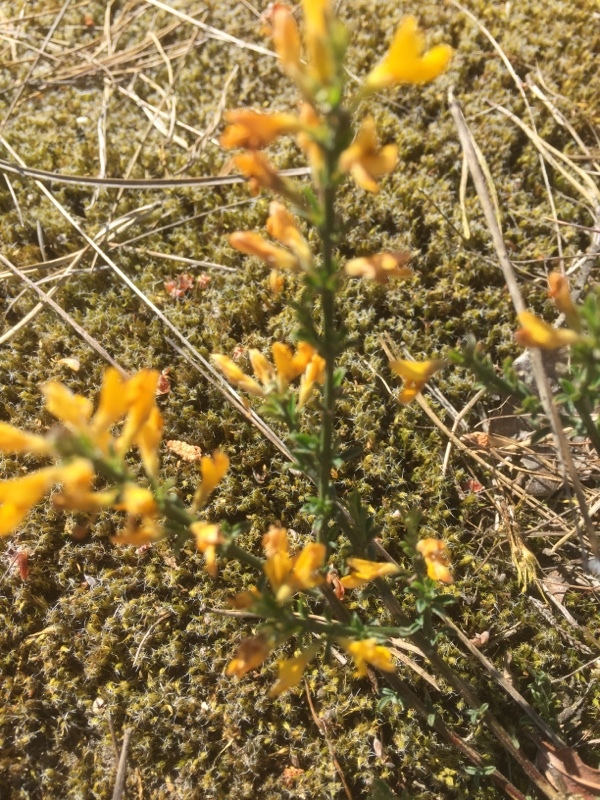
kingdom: Plantae
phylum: Tracheophyta
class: Magnoliopsida
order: Fabales
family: Fabaceae
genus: Genista
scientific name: Genista pilosa
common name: Hairy greenweed
